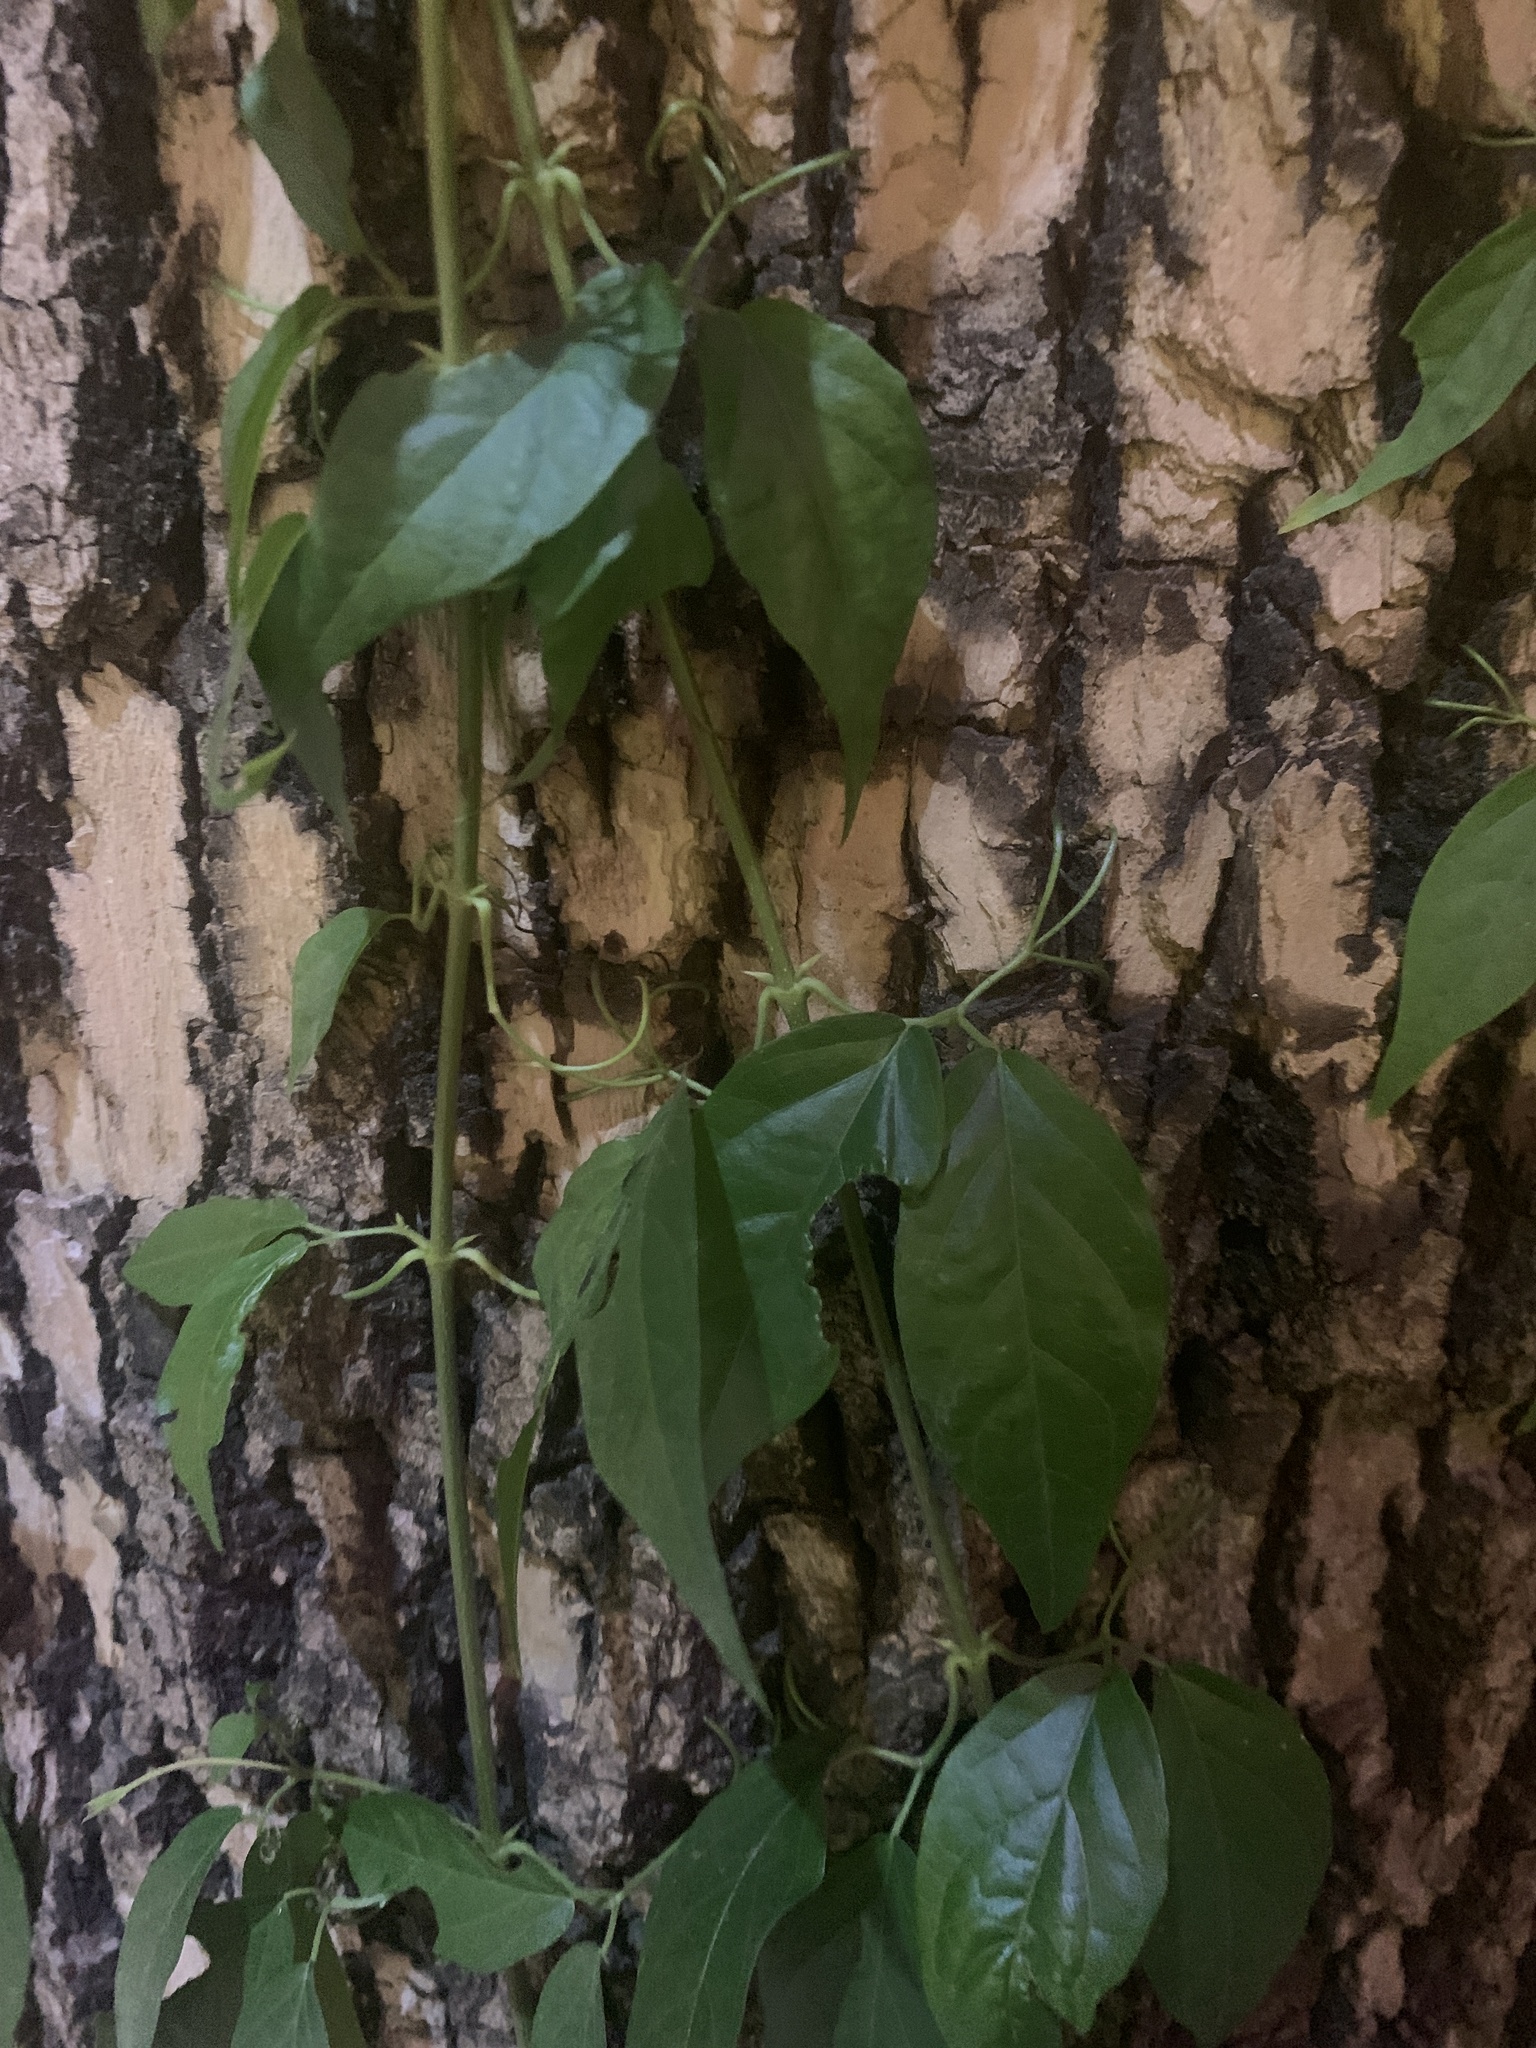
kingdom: Plantae
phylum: Tracheophyta
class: Magnoliopsida
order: Lamiales
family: Bignoniaceae
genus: Dolichandra
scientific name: Dolichandra unguis-cati
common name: Catclaw vine
